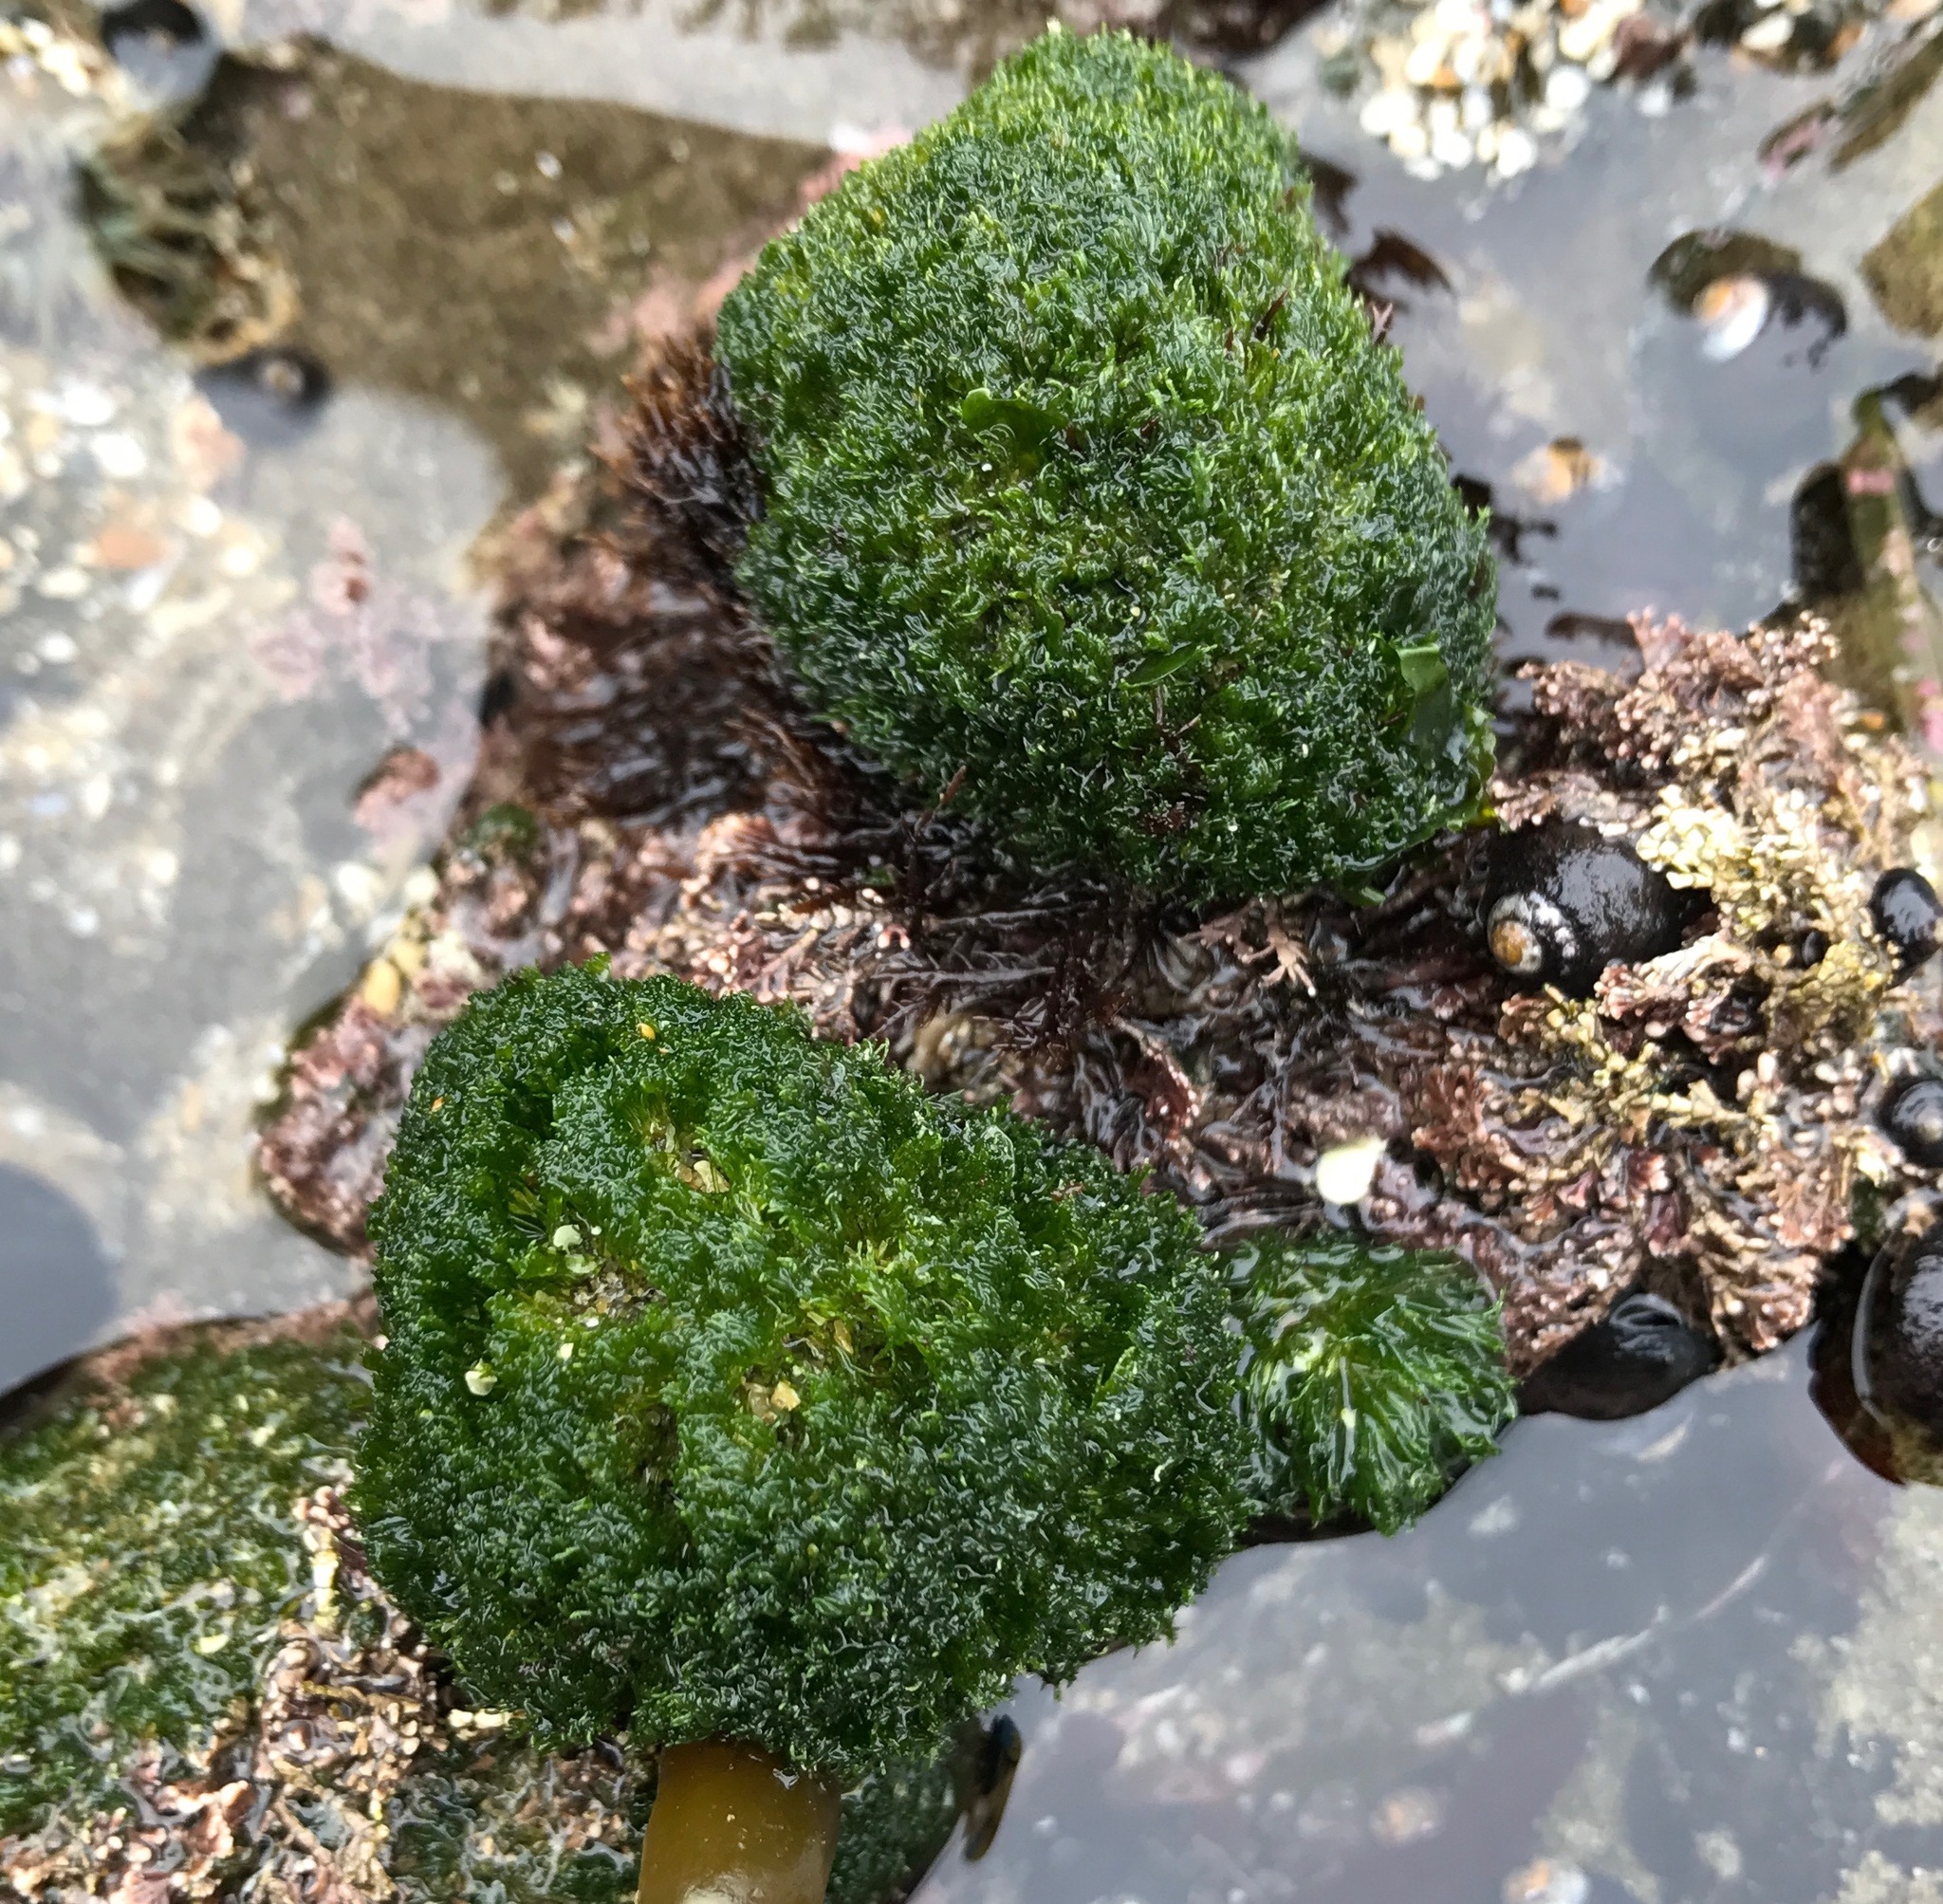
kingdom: Plantae
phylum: Chlorophyta
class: Ulvophyceae
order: Cladophorales
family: Cladophoraceae
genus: Cladophora
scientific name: Cladophora columbiana
